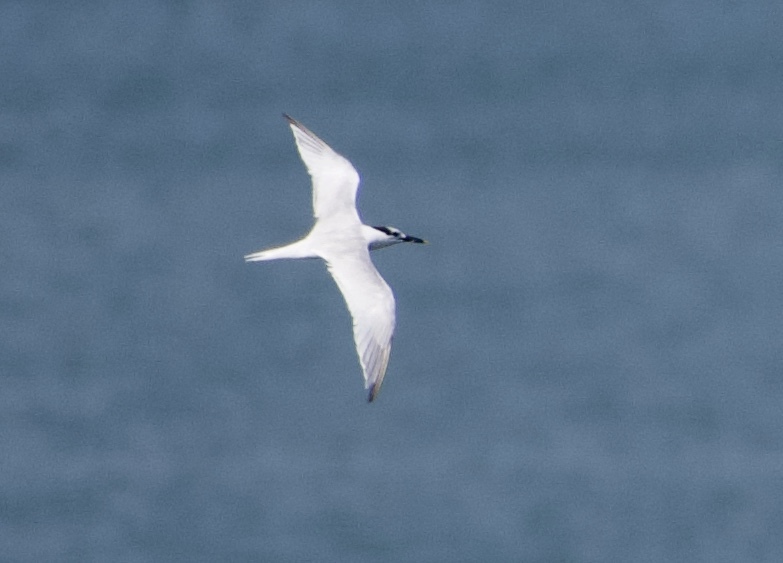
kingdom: Animalia
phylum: Chordata
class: Aves
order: Charadriiformes
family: Laridae
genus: Thalasseus
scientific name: Thalasseus sandvicensis
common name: Sandwich tern
